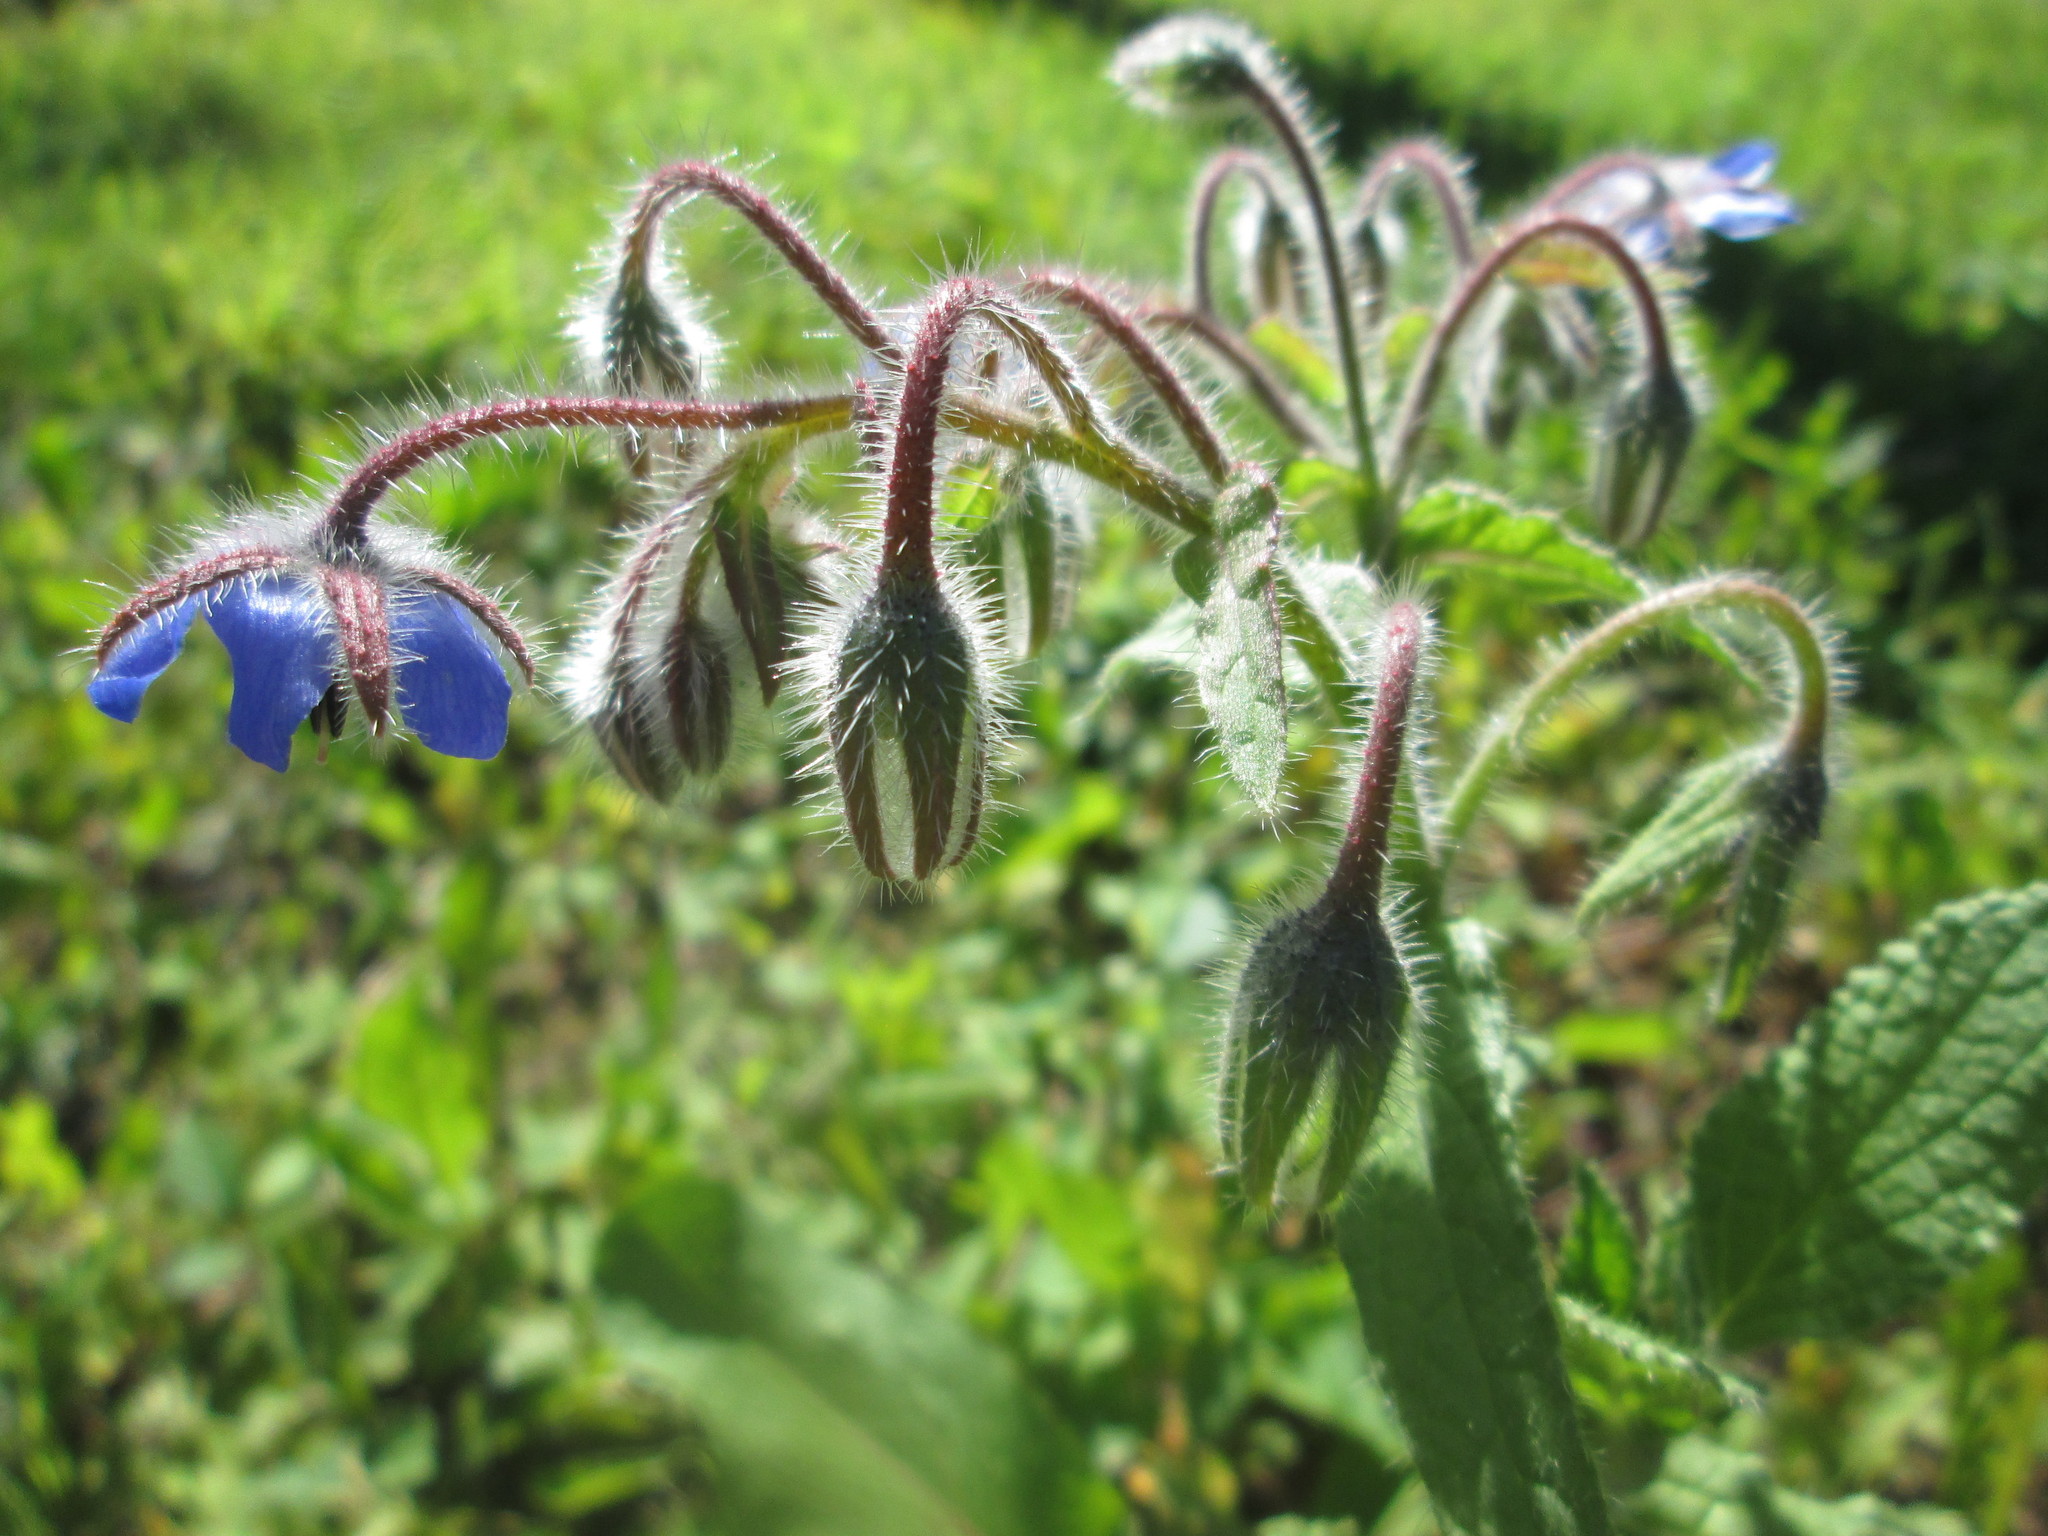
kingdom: Plantae
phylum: Tracheophyta
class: Magnoliopsida
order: Boraginales
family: Boraginaceae
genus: Borago
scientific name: Borago officinalis
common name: Borage
